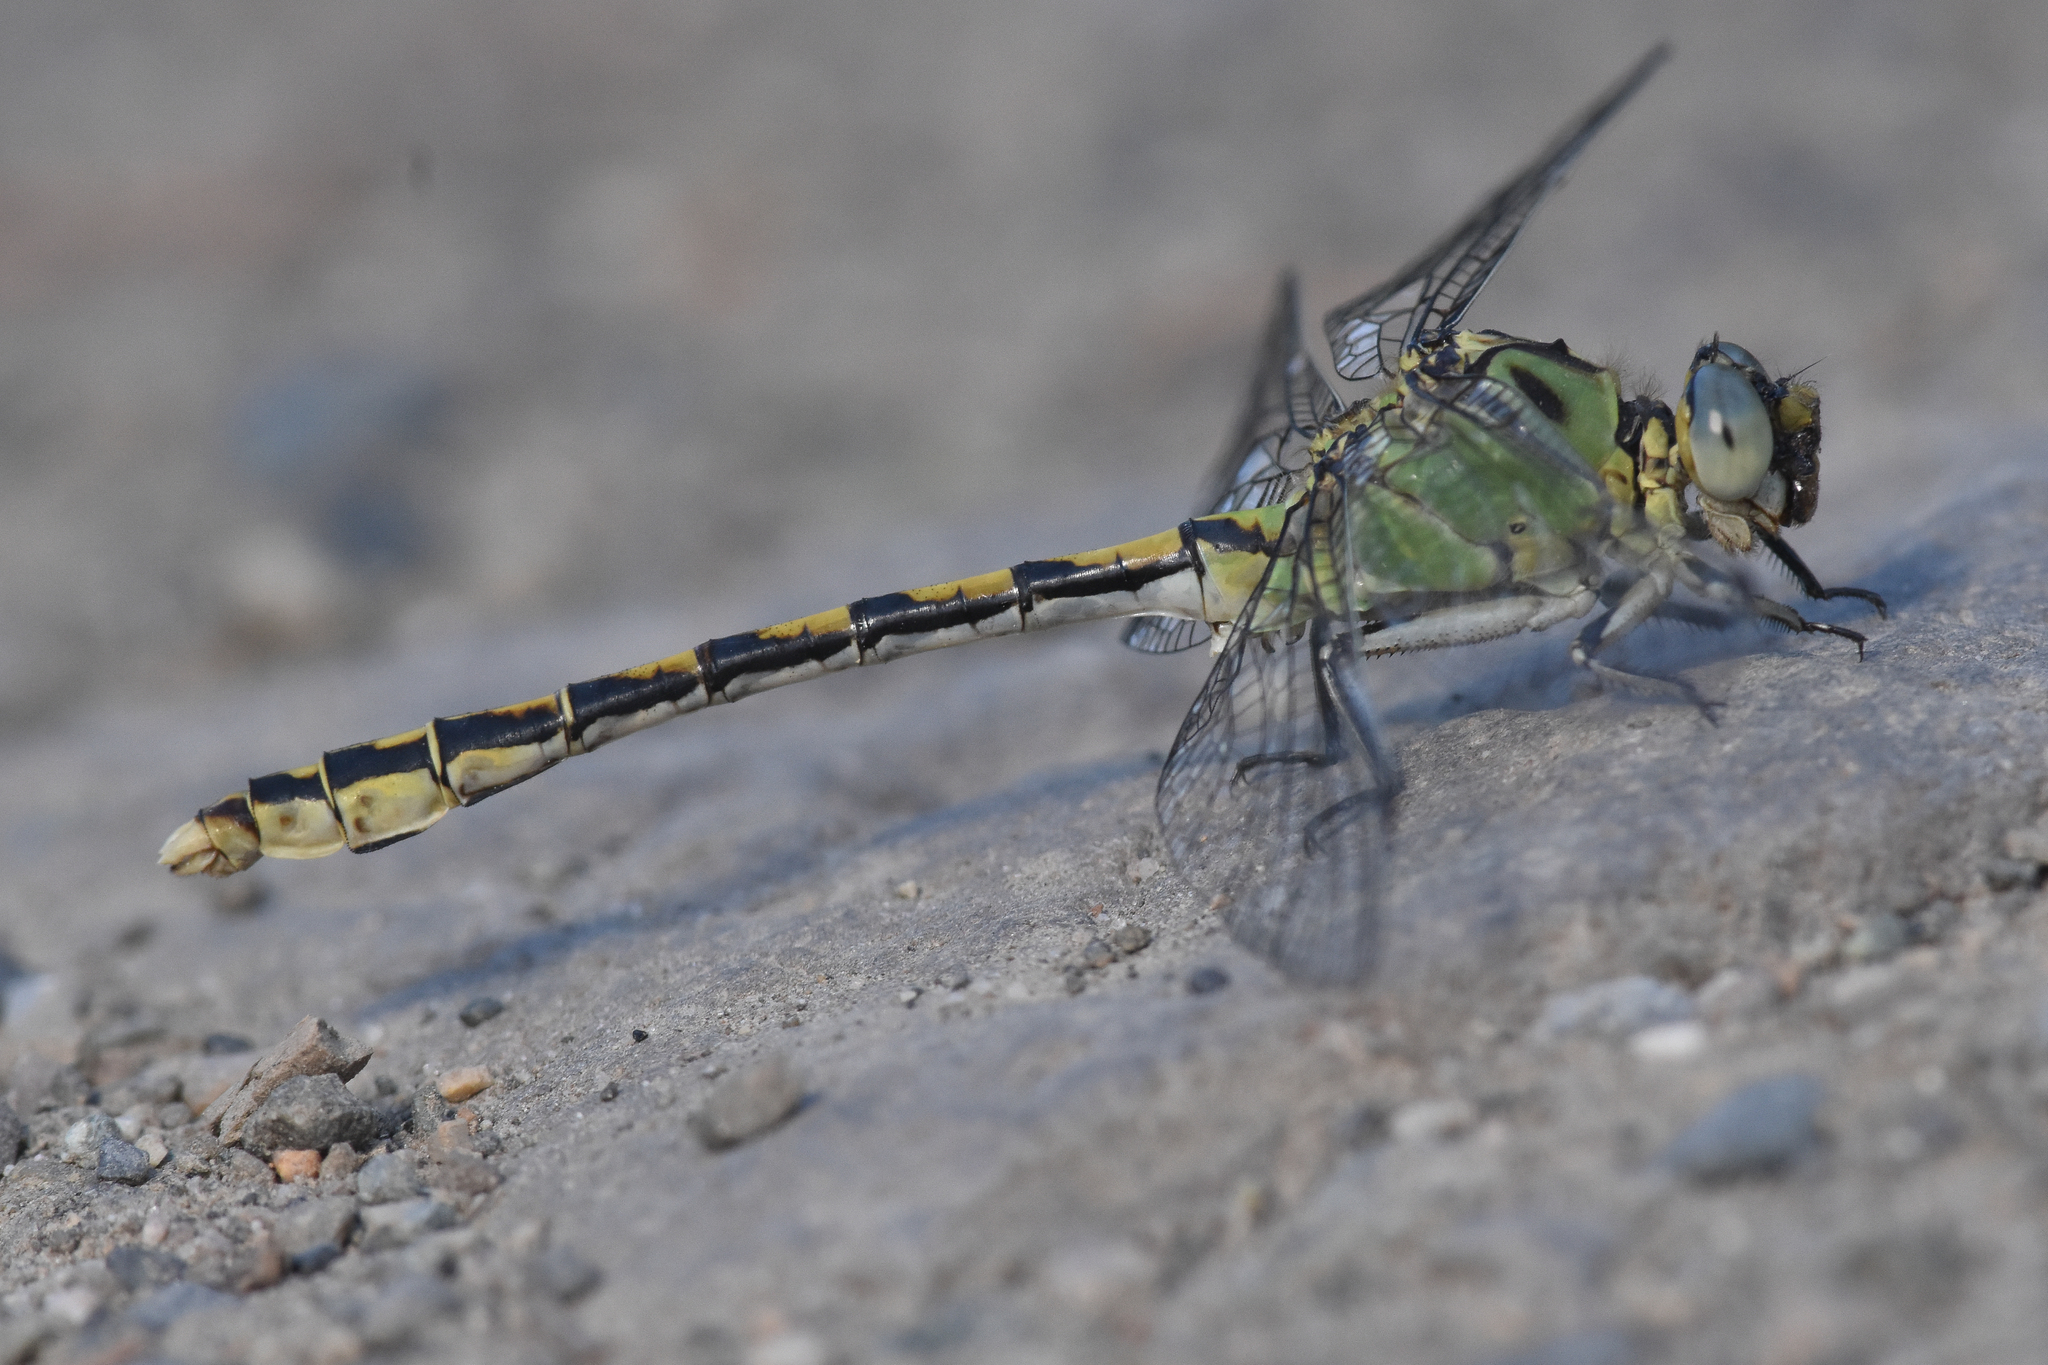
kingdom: Animalia
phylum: Arthropoda
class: Insecta
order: Odonata
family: Gomphidae
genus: Ophiogomphus
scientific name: Ophiogomphus severus
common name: Pale snaketail
